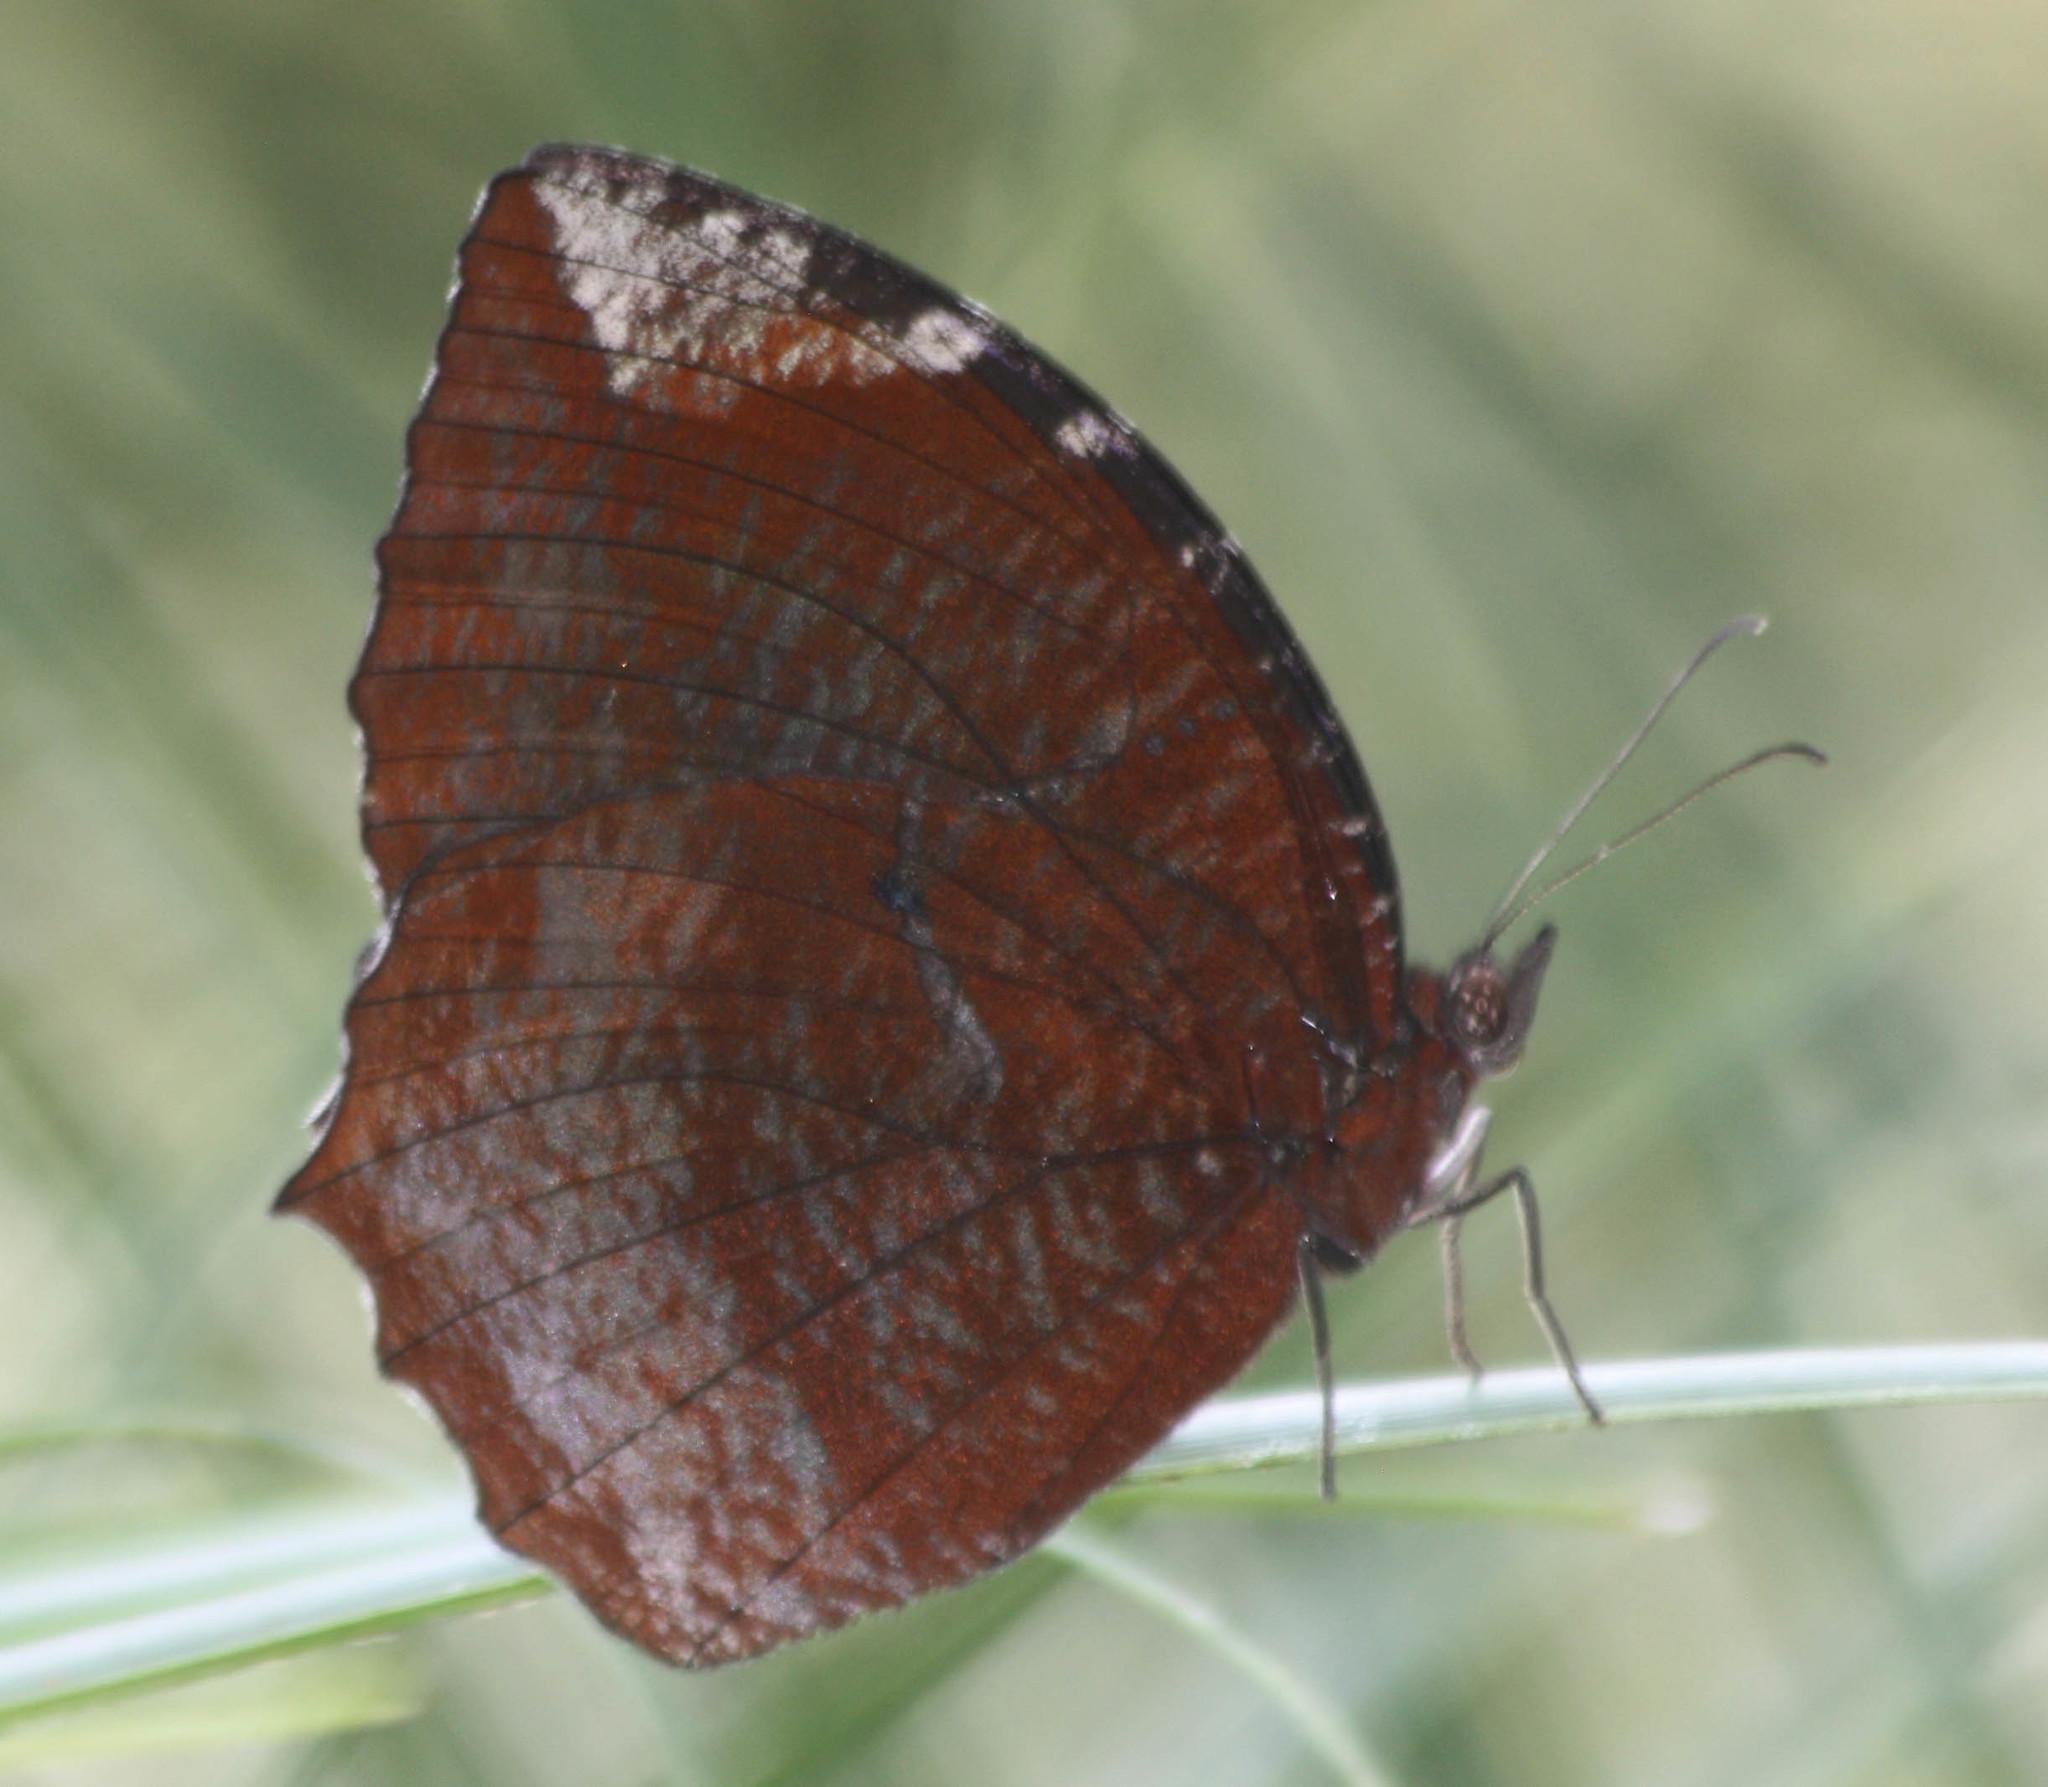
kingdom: Animalia
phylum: Arthropoda
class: Insecta
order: Lepidoptera
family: Nymphalidae
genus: Elymnias
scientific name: Elymnias hypermnestra
